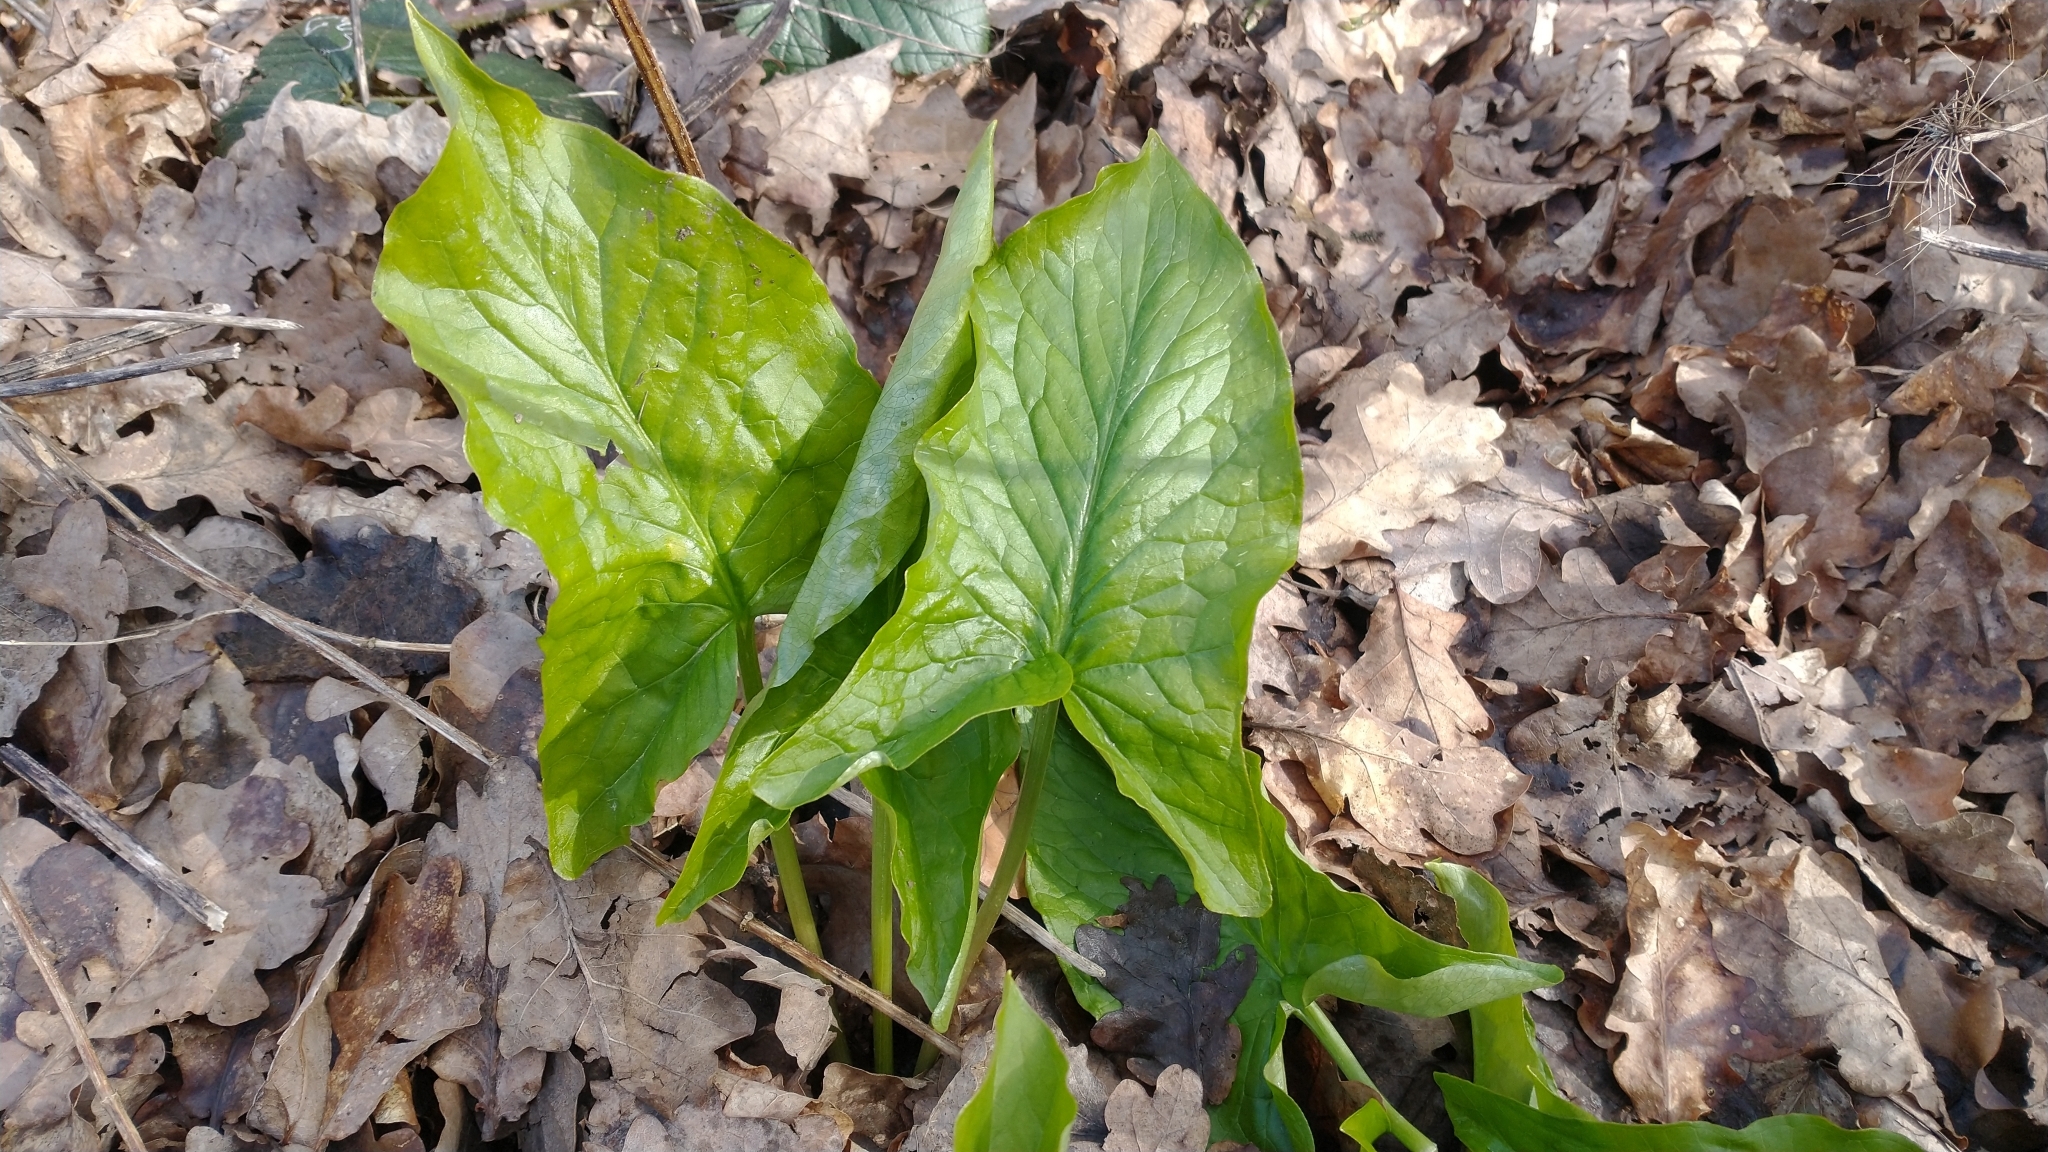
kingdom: Plantae
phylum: Tracheophyta
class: Liliopsida
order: Alismatales
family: Araceae
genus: Arum
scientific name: Arum maculatum
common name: Lords-and-ladies
